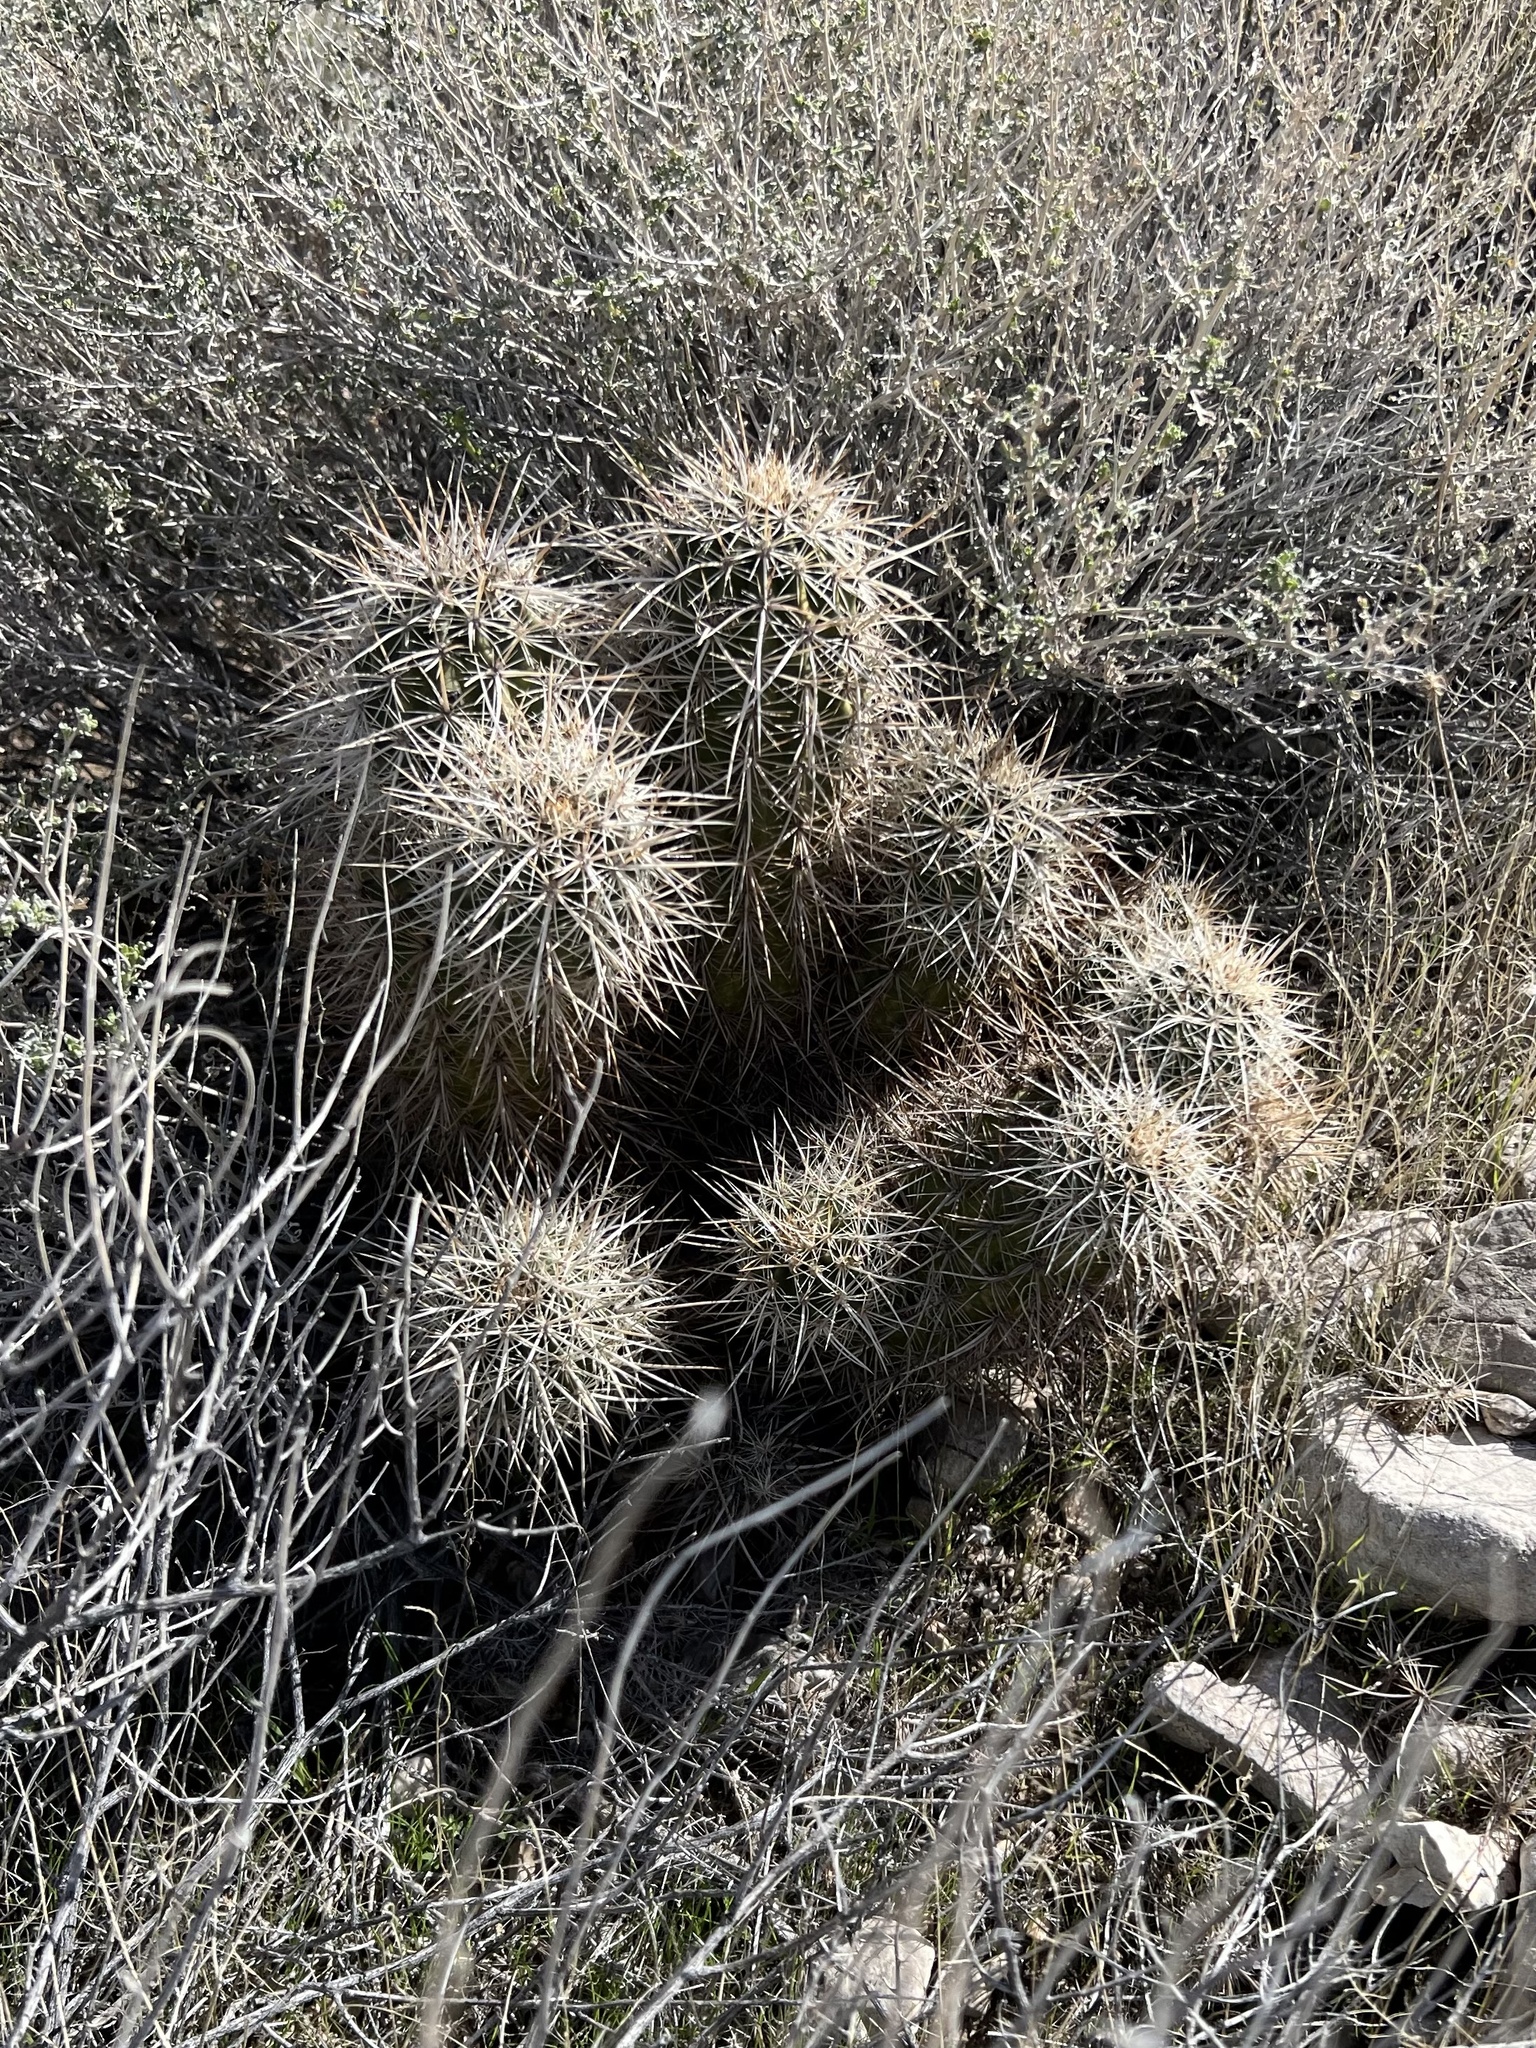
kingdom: Plantae
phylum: Tracheophyta
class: Magnoliopsida
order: Caryophyllales
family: Cactaceae
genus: Echinocereus
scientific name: Echinocereus engelmannii
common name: Engelmann's hedgehog cactus
